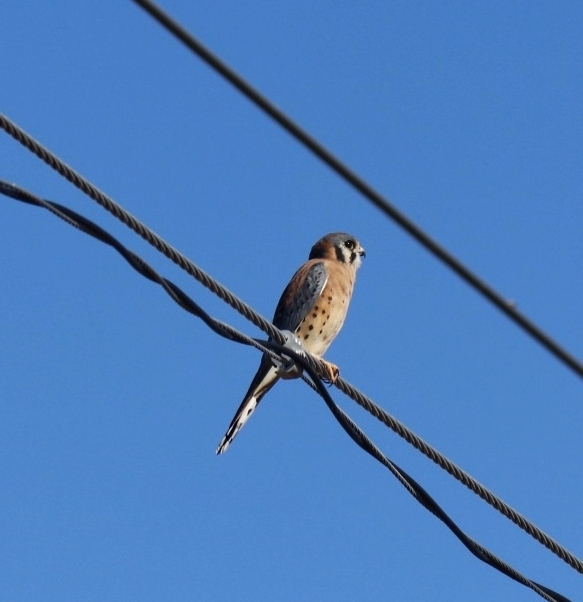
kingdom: Animalia
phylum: Chordata
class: Aves
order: Falconiformes
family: Falconidae
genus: Falco
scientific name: Falco sparverius
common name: American kestrel
